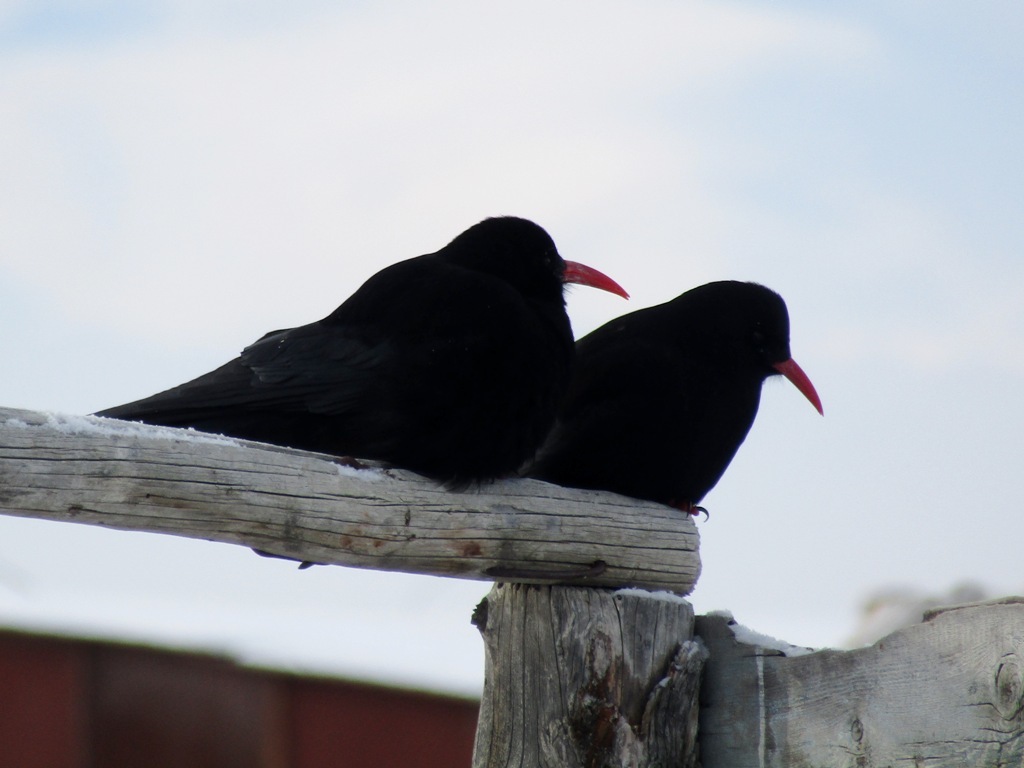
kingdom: Animalia
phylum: Chordata
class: Aves
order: Passeriformes
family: Corvidae
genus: Pyrrhocorax
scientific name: Pyrrhocorax pyrrhocorax
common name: Red-billed chough
